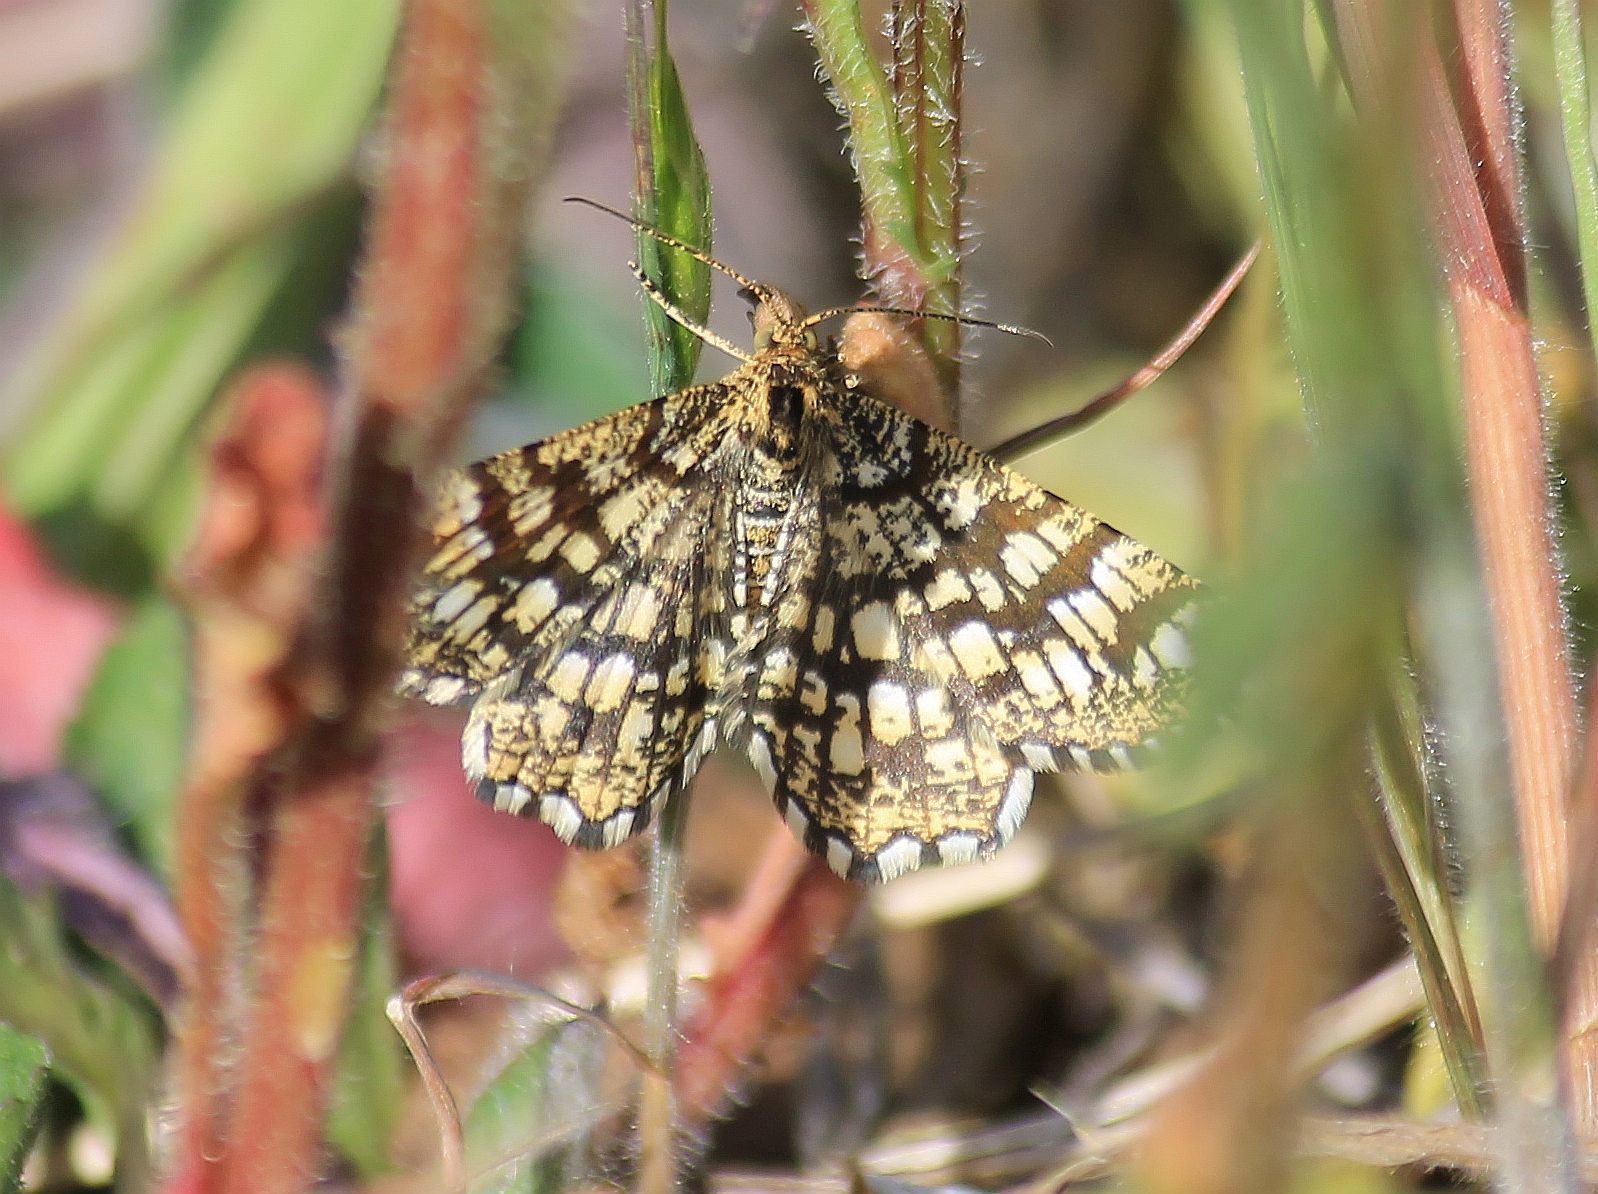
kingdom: Animalia
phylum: Arthropoda
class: Insecta
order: Lepidoptera
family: Geometridae
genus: Chiasmia
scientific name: Chiasmia clathrata
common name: Latticed heath
